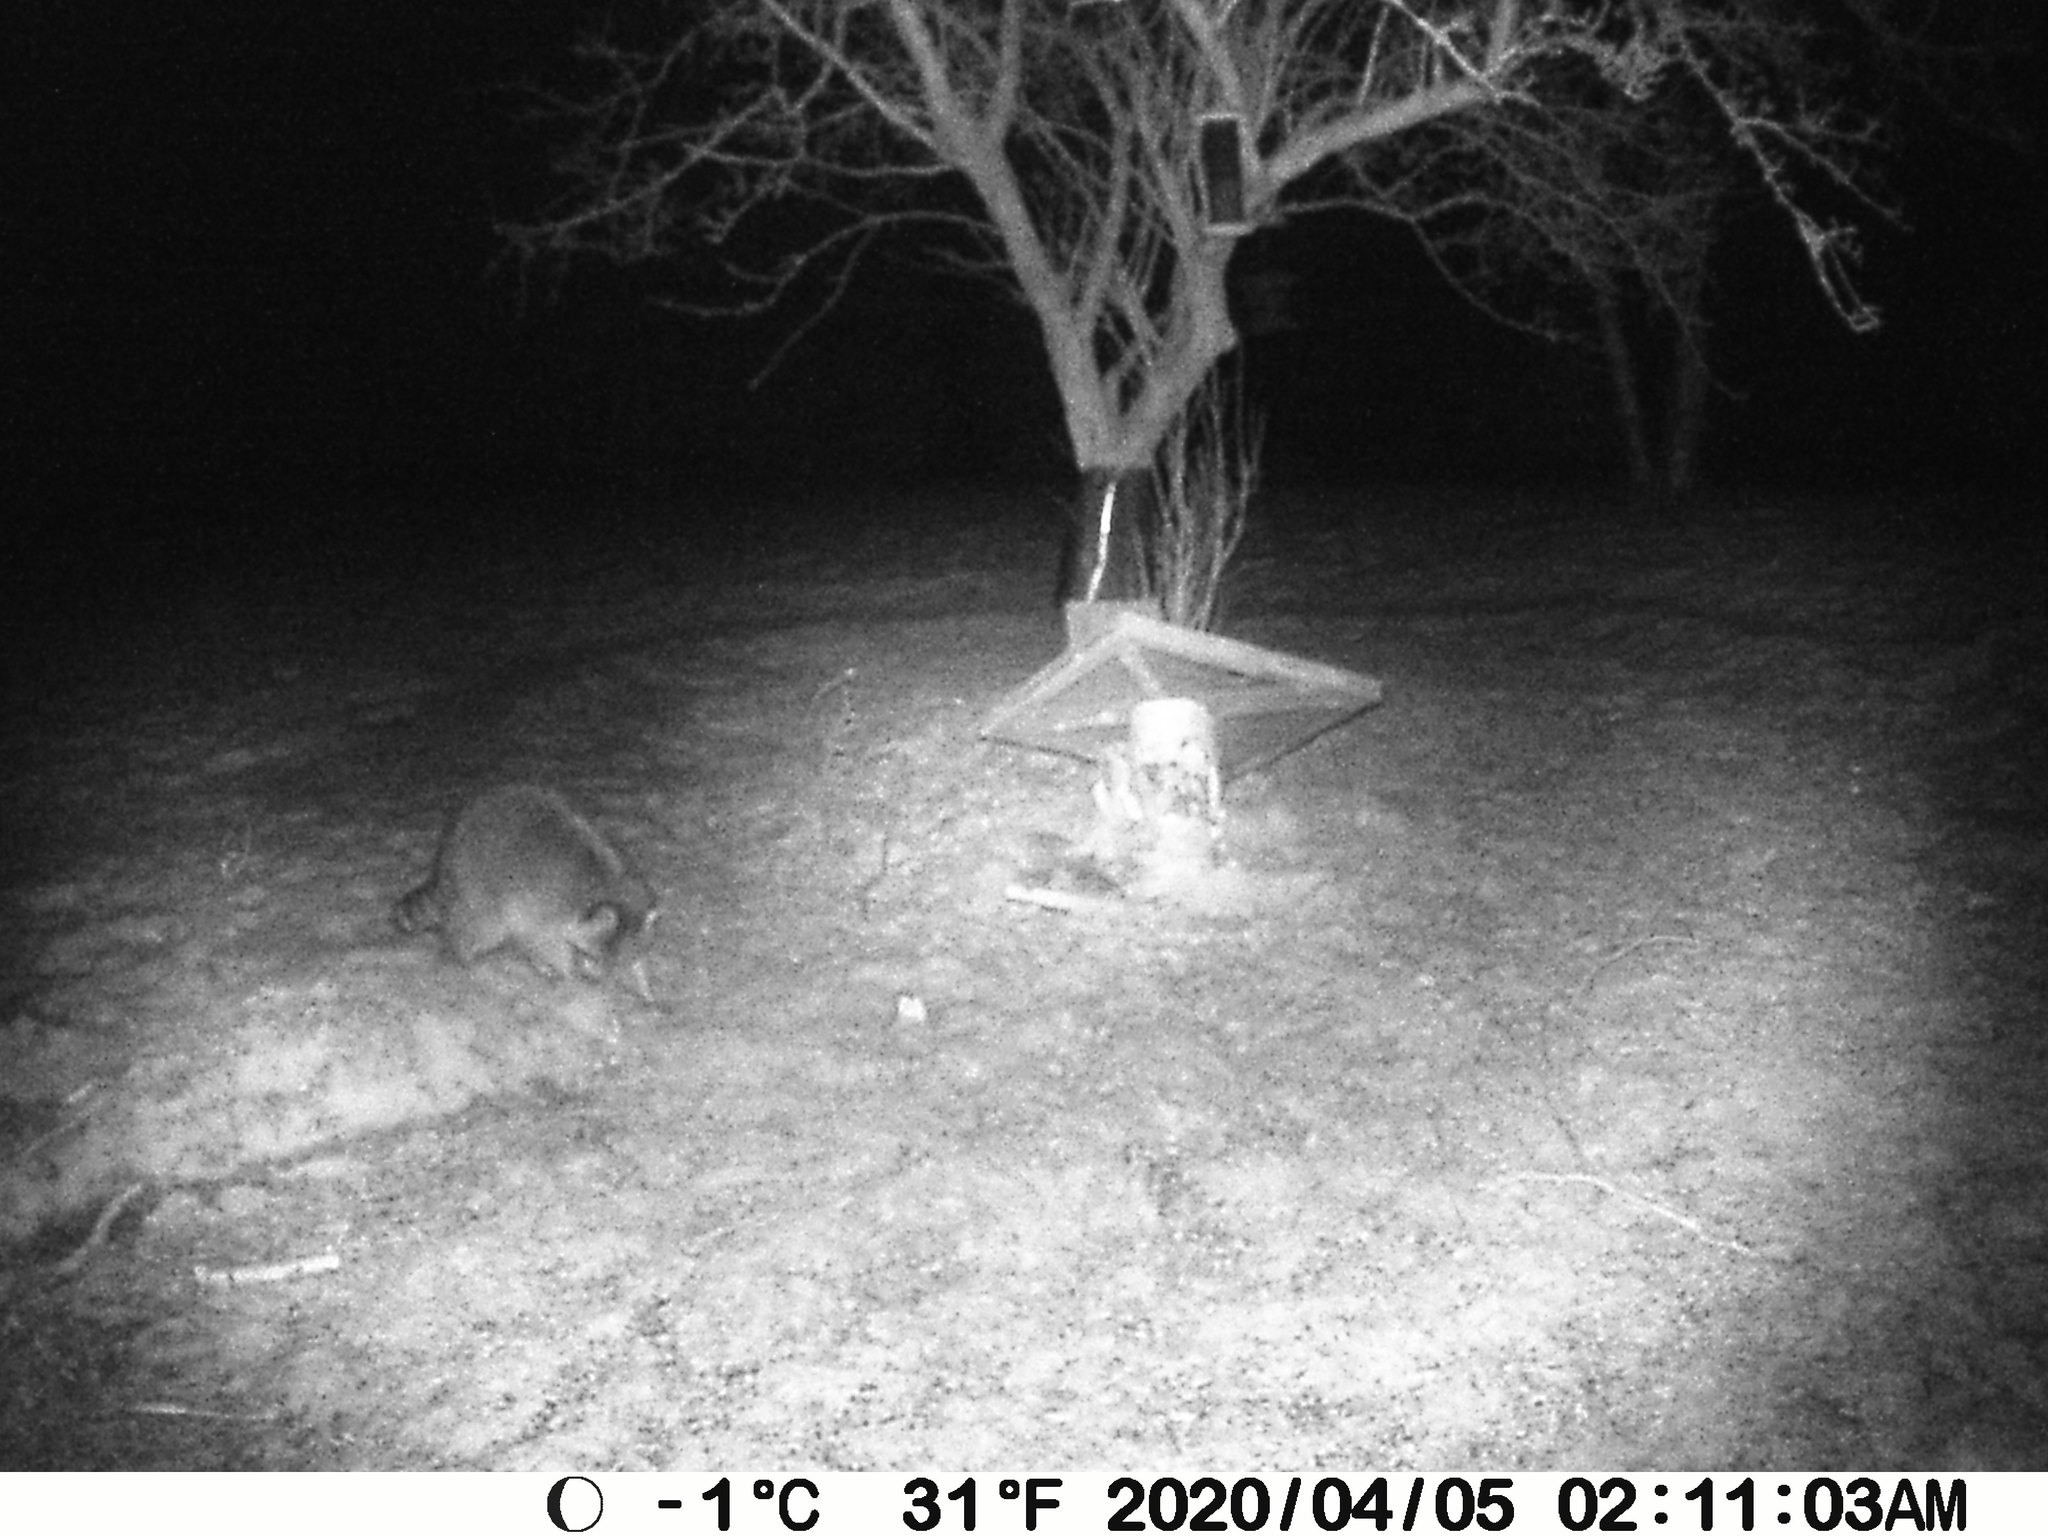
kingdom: Animalia
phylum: Chordata
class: Mammalia
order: Carnivora
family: Procyonidae
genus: Procyon
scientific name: Procyon lotor
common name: Raccoon
